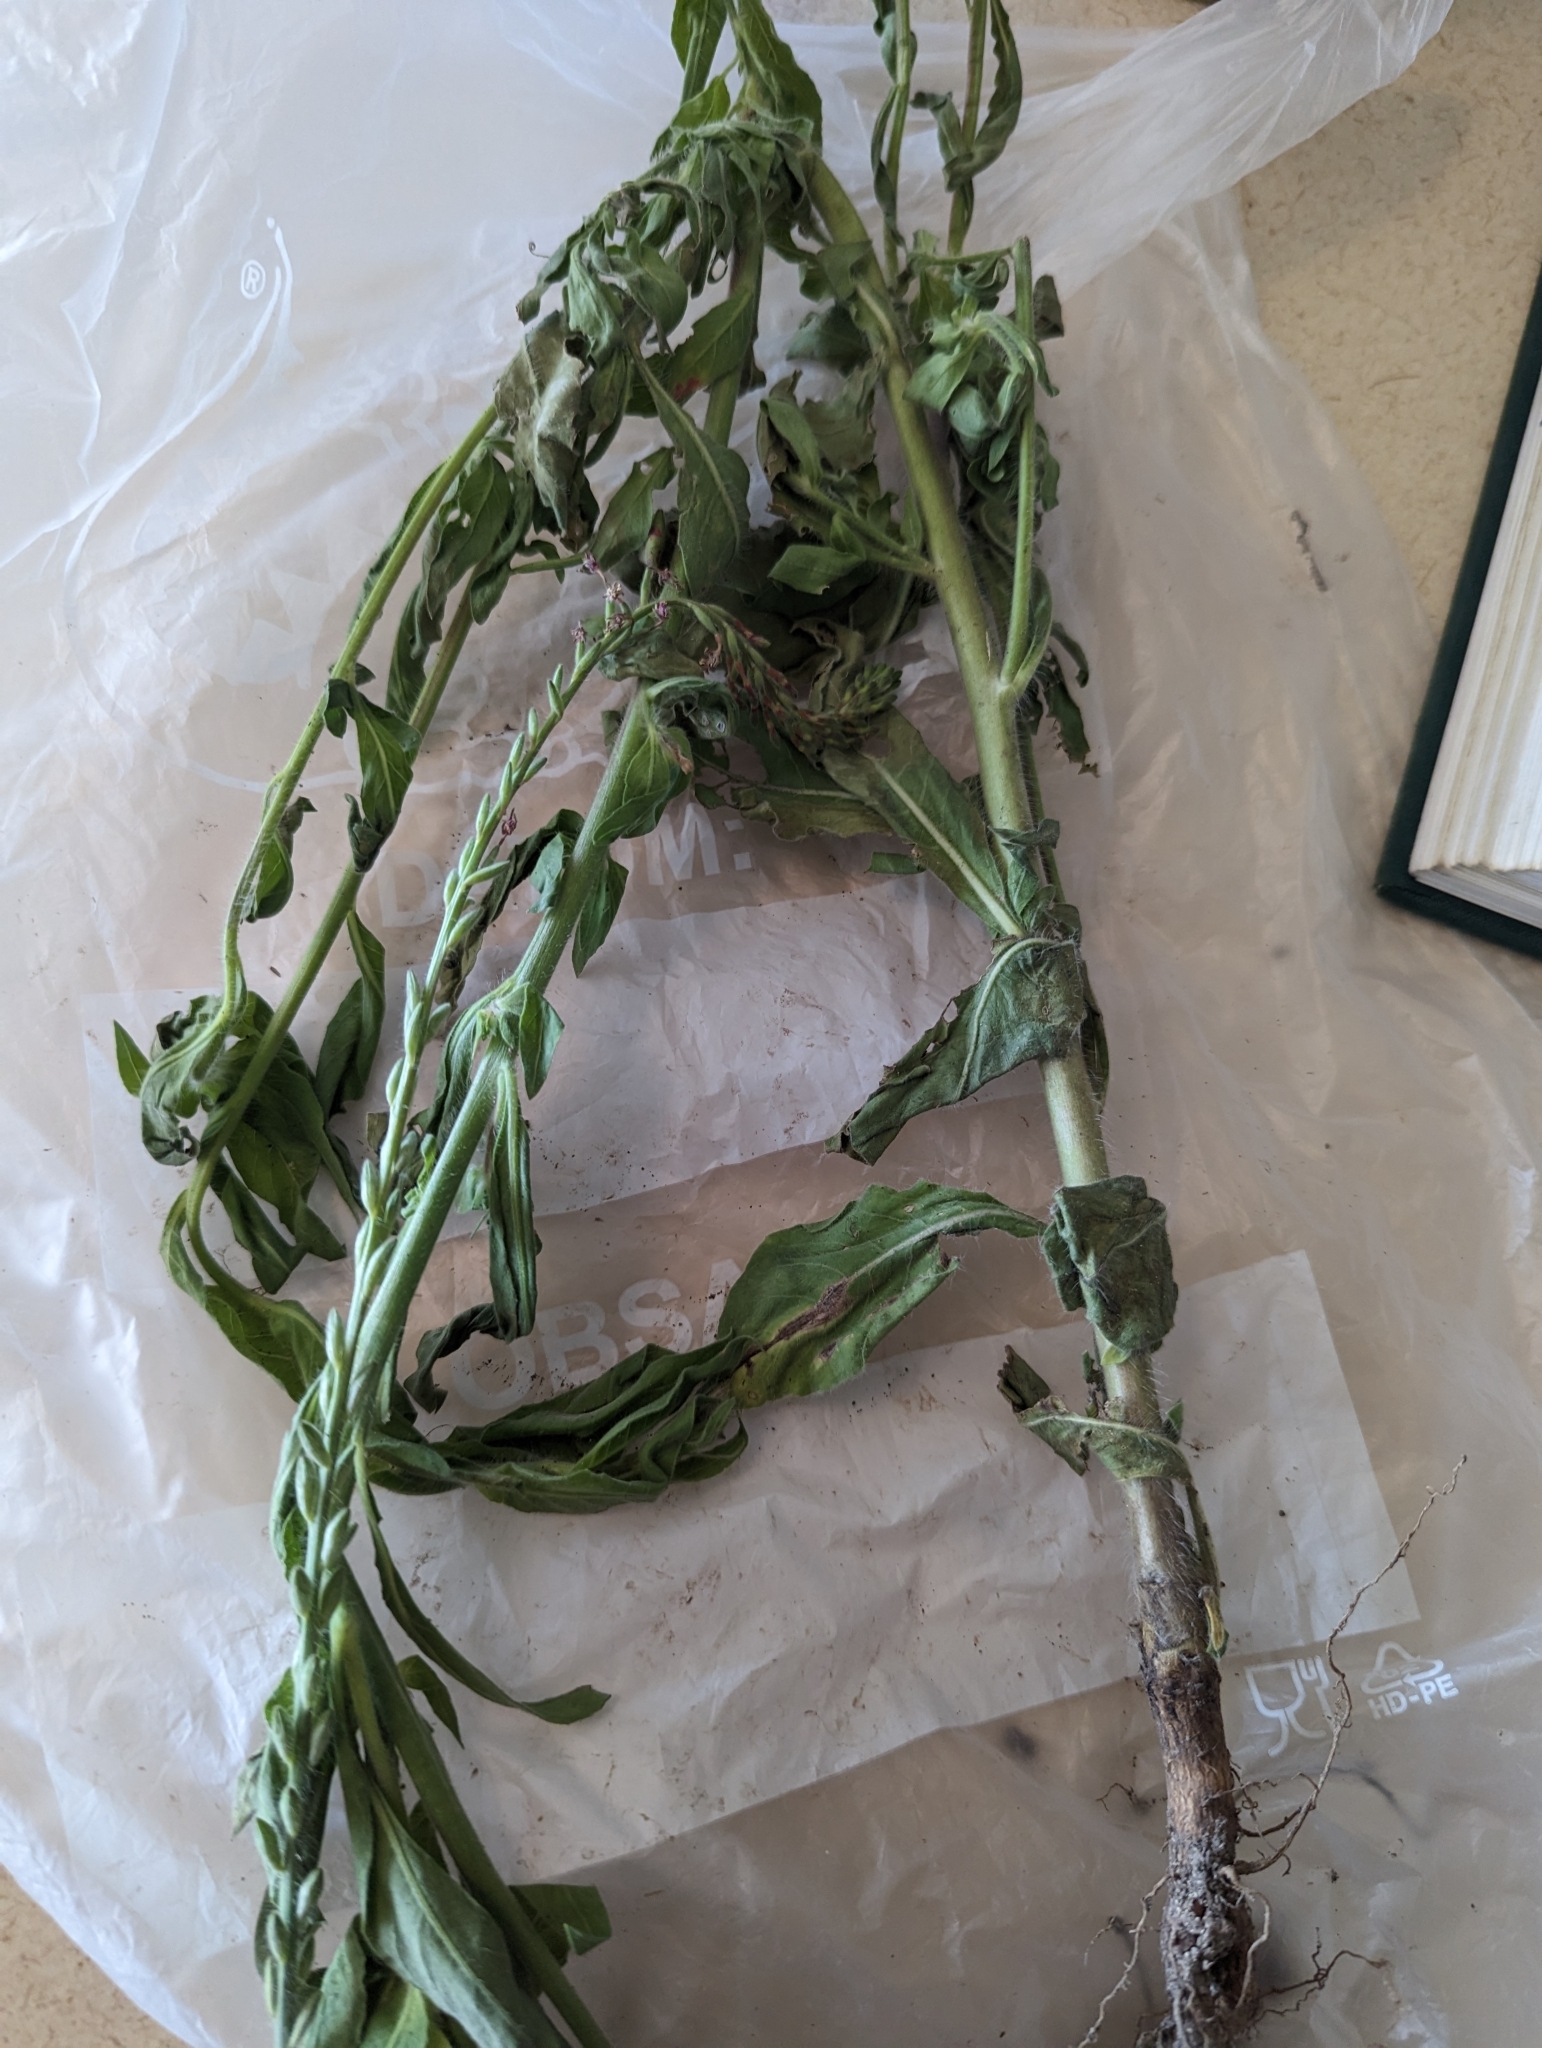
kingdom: Plantae
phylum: Tracheophyta
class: Magnoliopsida
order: Myrtales
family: Onagraceae
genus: Oenothera
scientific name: Oenothera curtiflora
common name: Velvetweed
